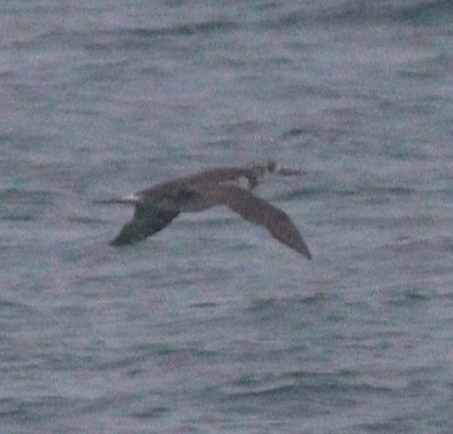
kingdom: Animalia
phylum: Chordata
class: Aves
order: Suliformes
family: Sulidae
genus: Morus
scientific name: Morus bassanus
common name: Northern gannet
